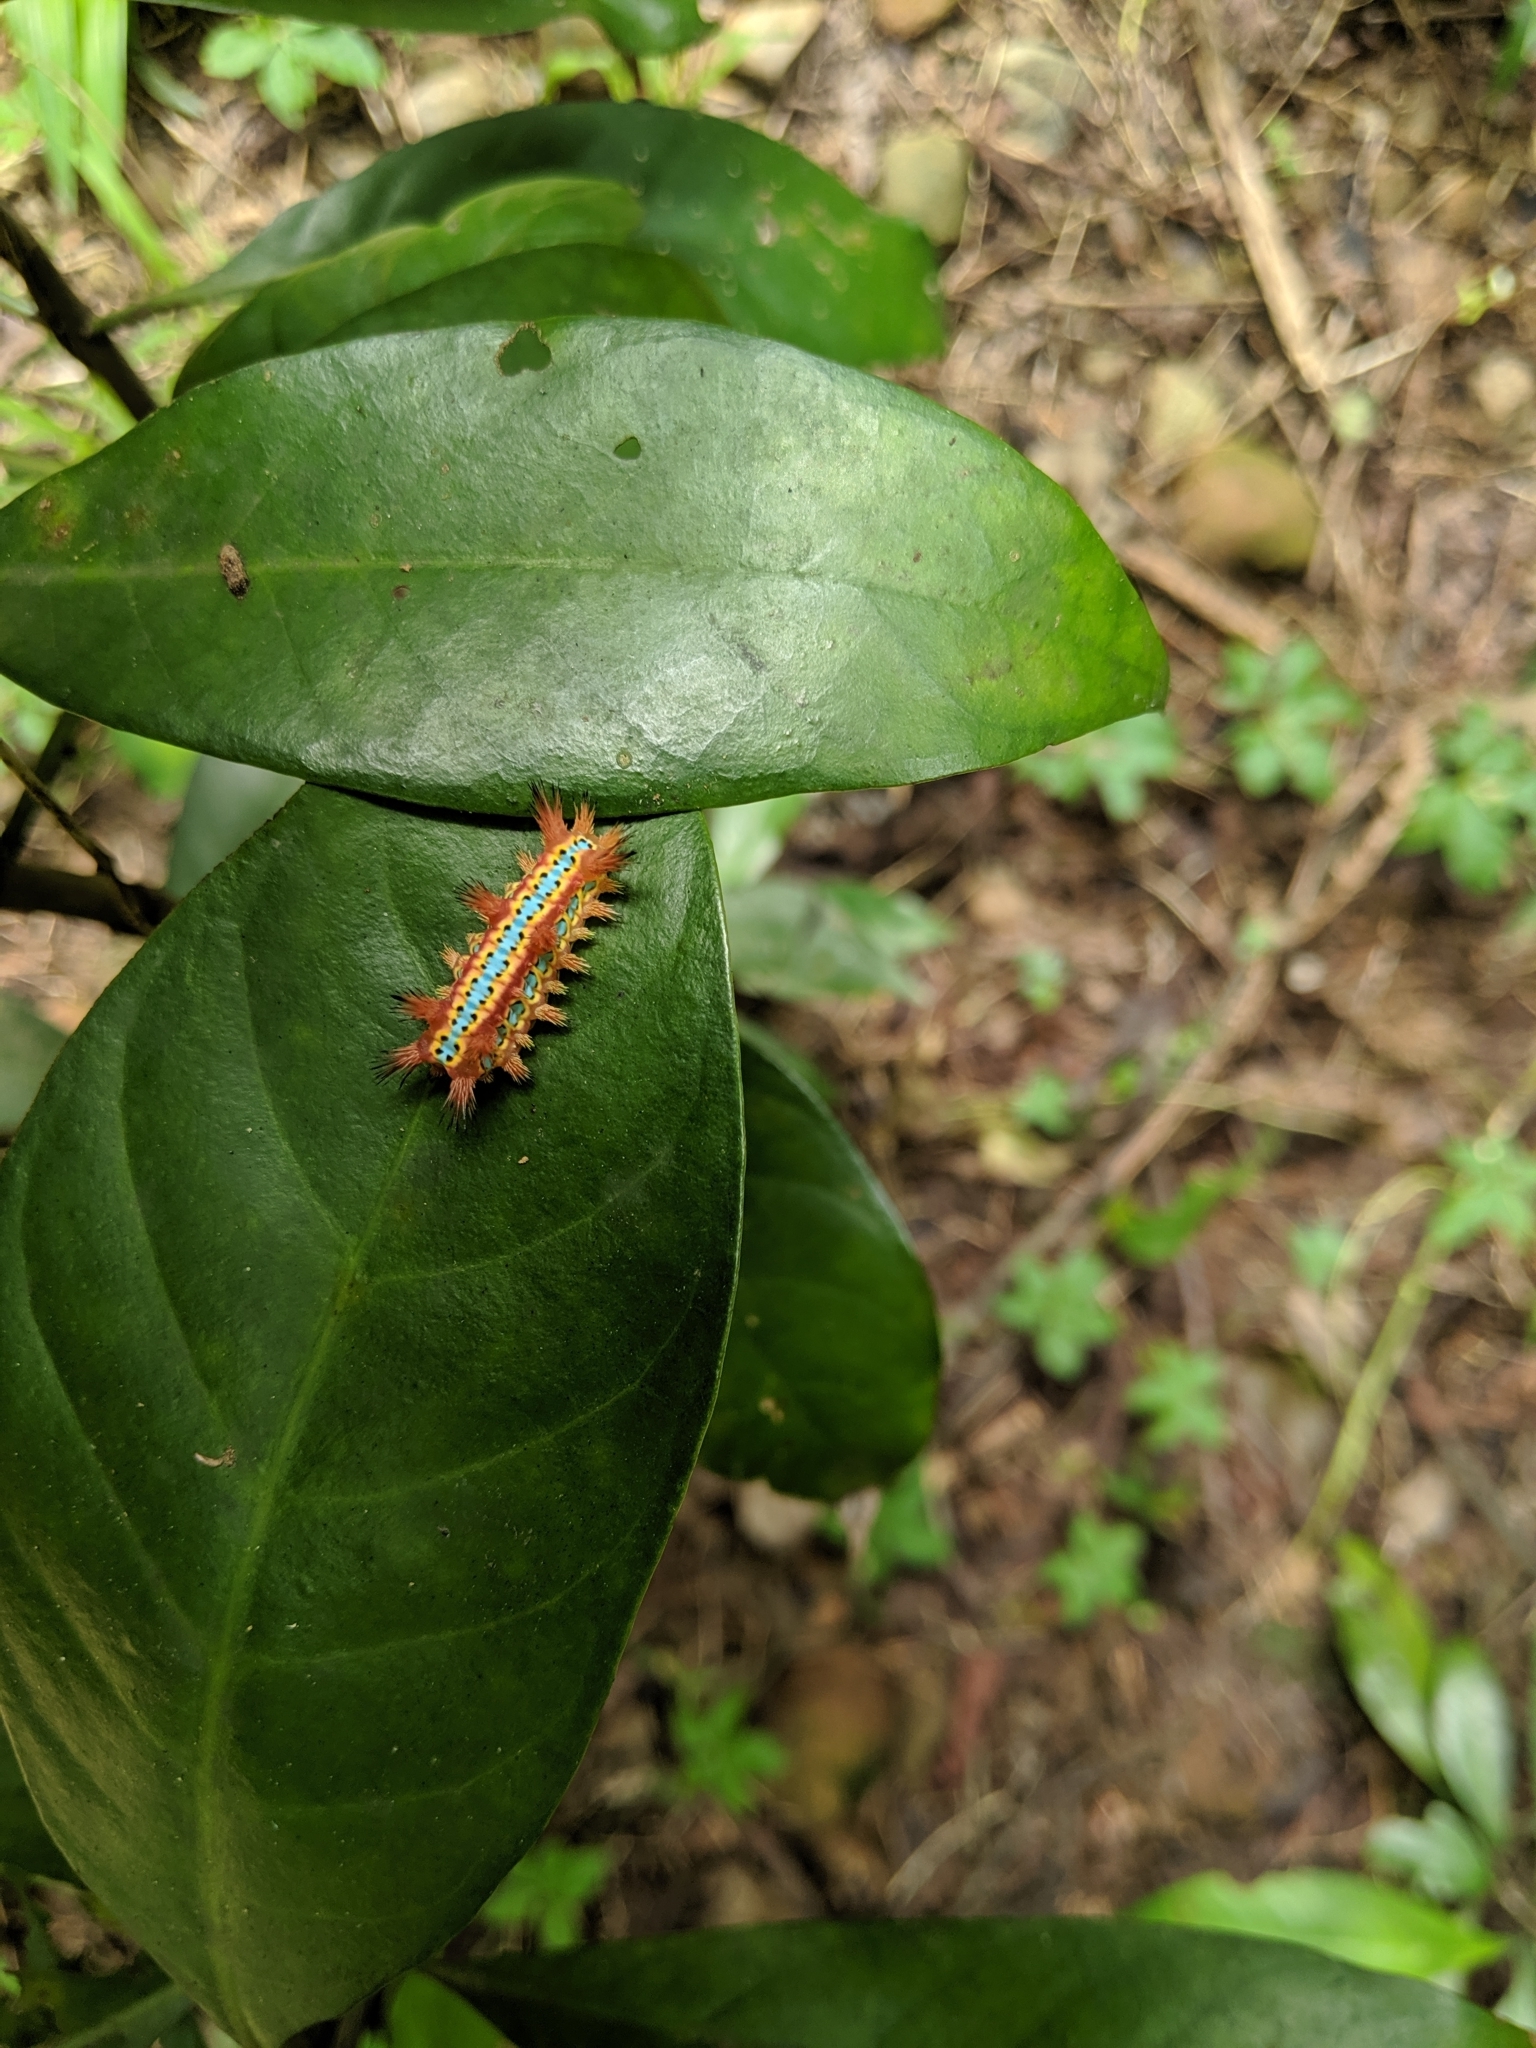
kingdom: Animalia
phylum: Arthropoda
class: Insecta
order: Lepidoptera
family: Limacodidae
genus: Setora
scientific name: Setora postornata
